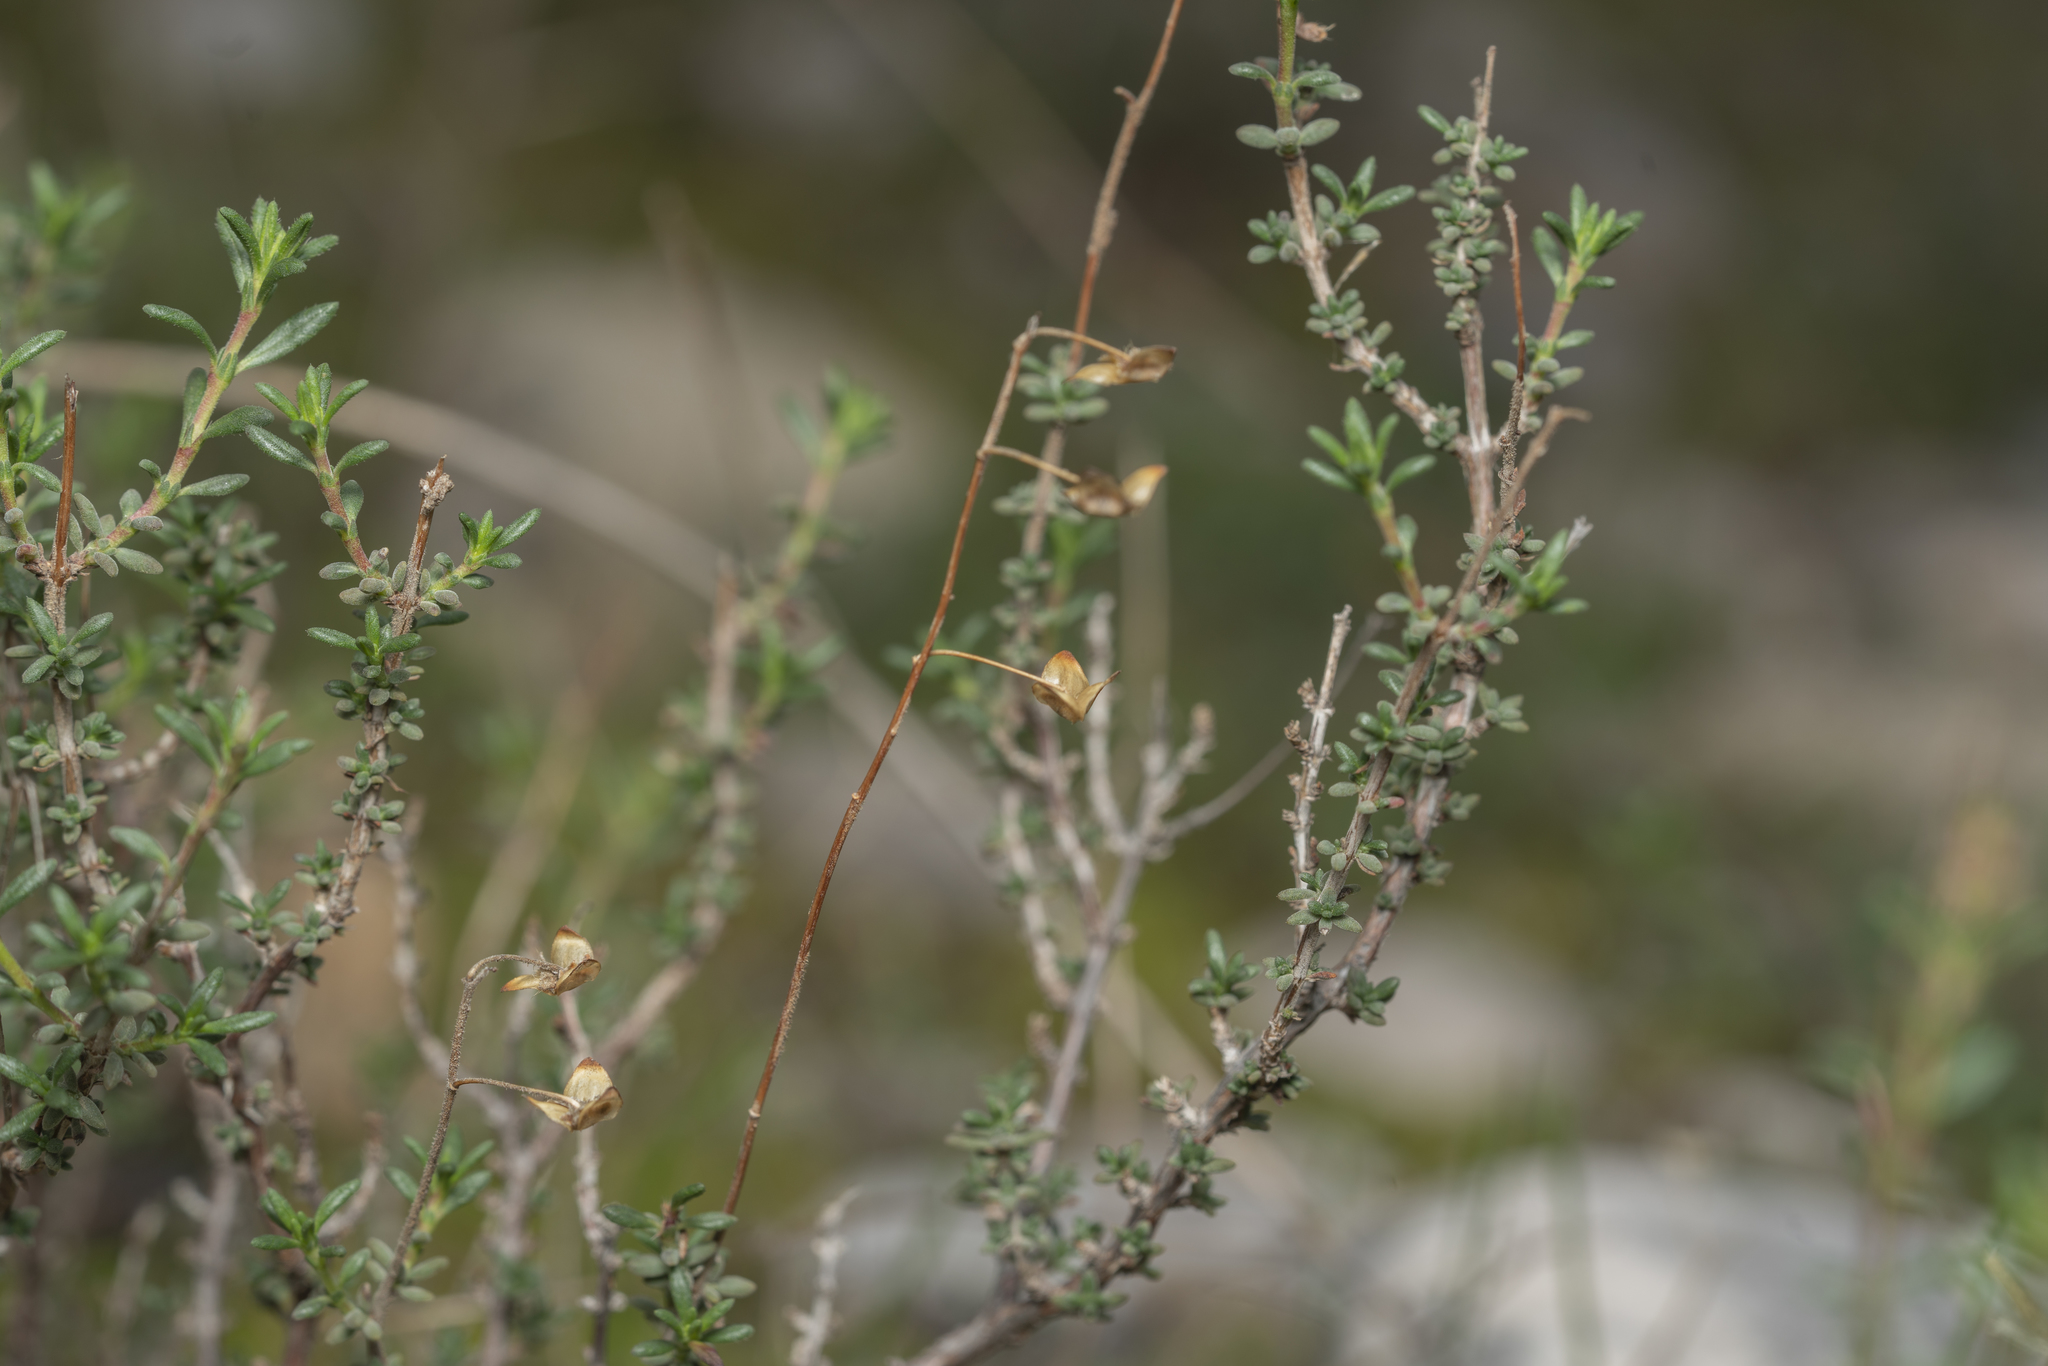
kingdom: Plantae
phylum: Tracheophyta
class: Magnoliopsida
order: Malvales
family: Cistaceae
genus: Fumana
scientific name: Fumana laevis
